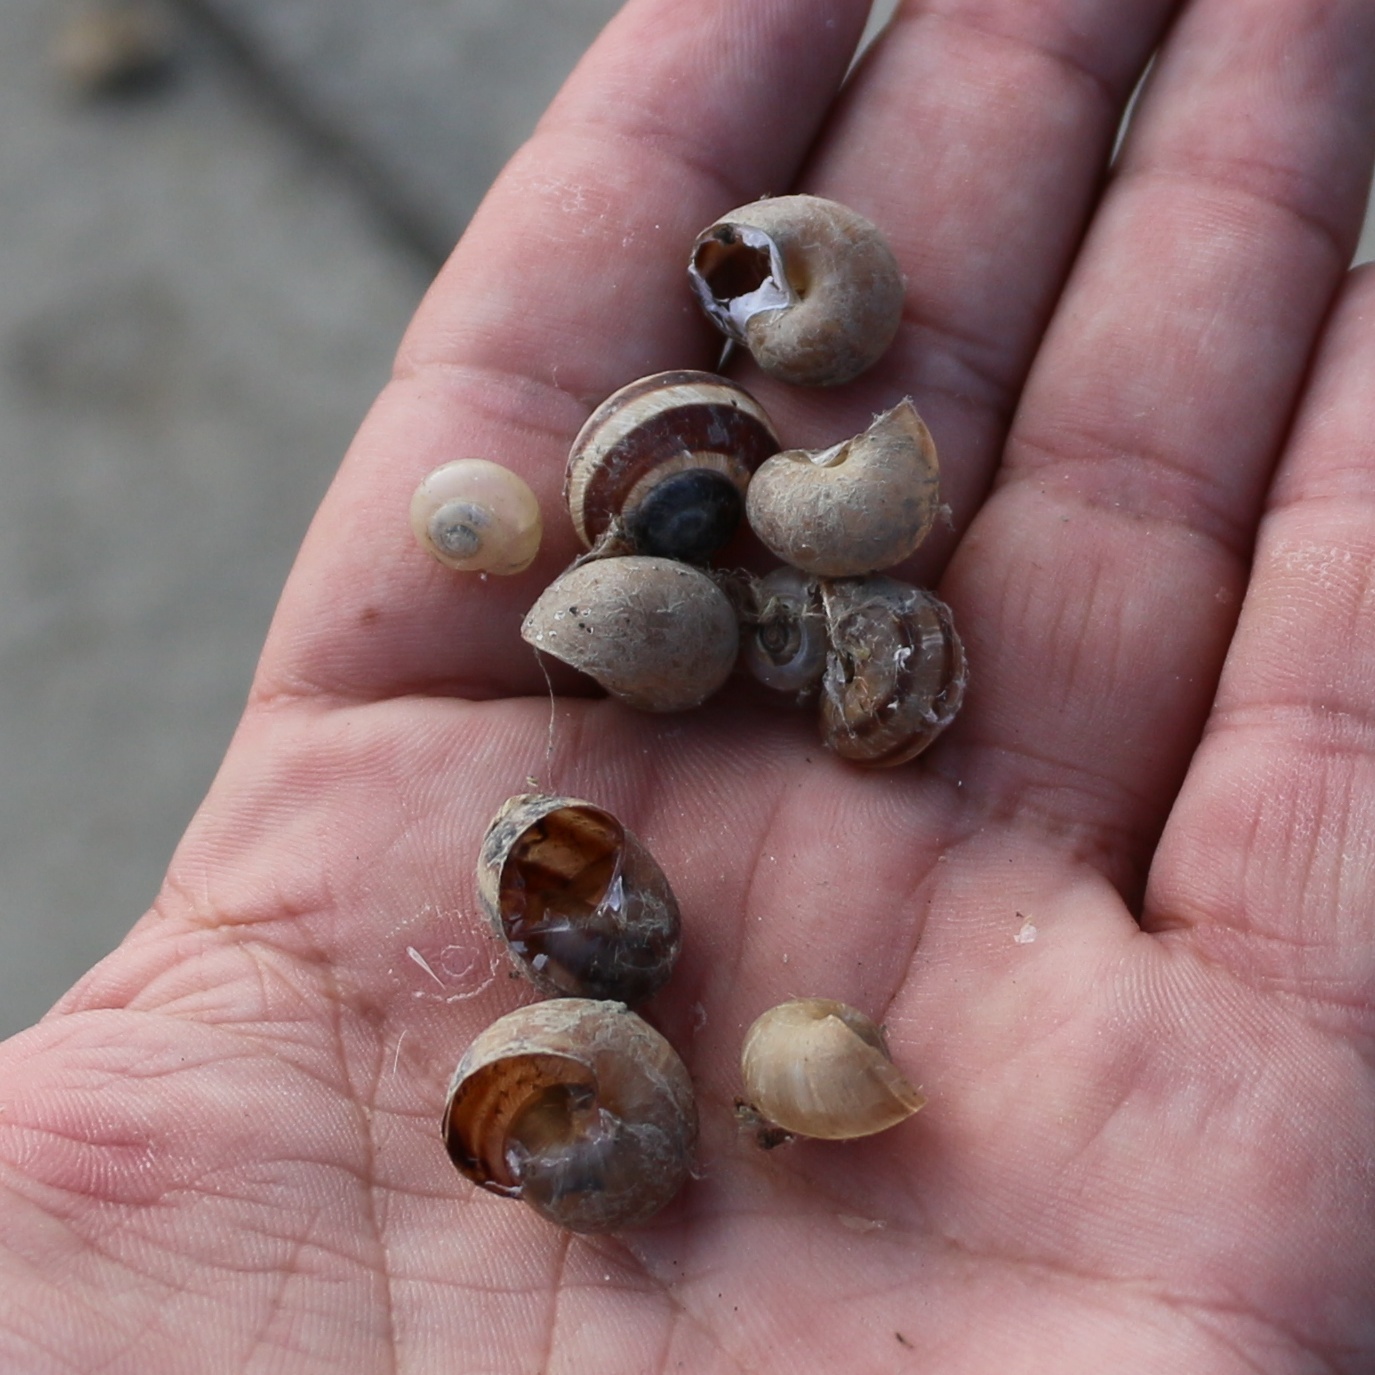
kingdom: Animalia
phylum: Mollusca
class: Gastropoda
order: Stylommatophora
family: Helicidae
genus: Helix
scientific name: Helix lucorum
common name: Turkish snail
